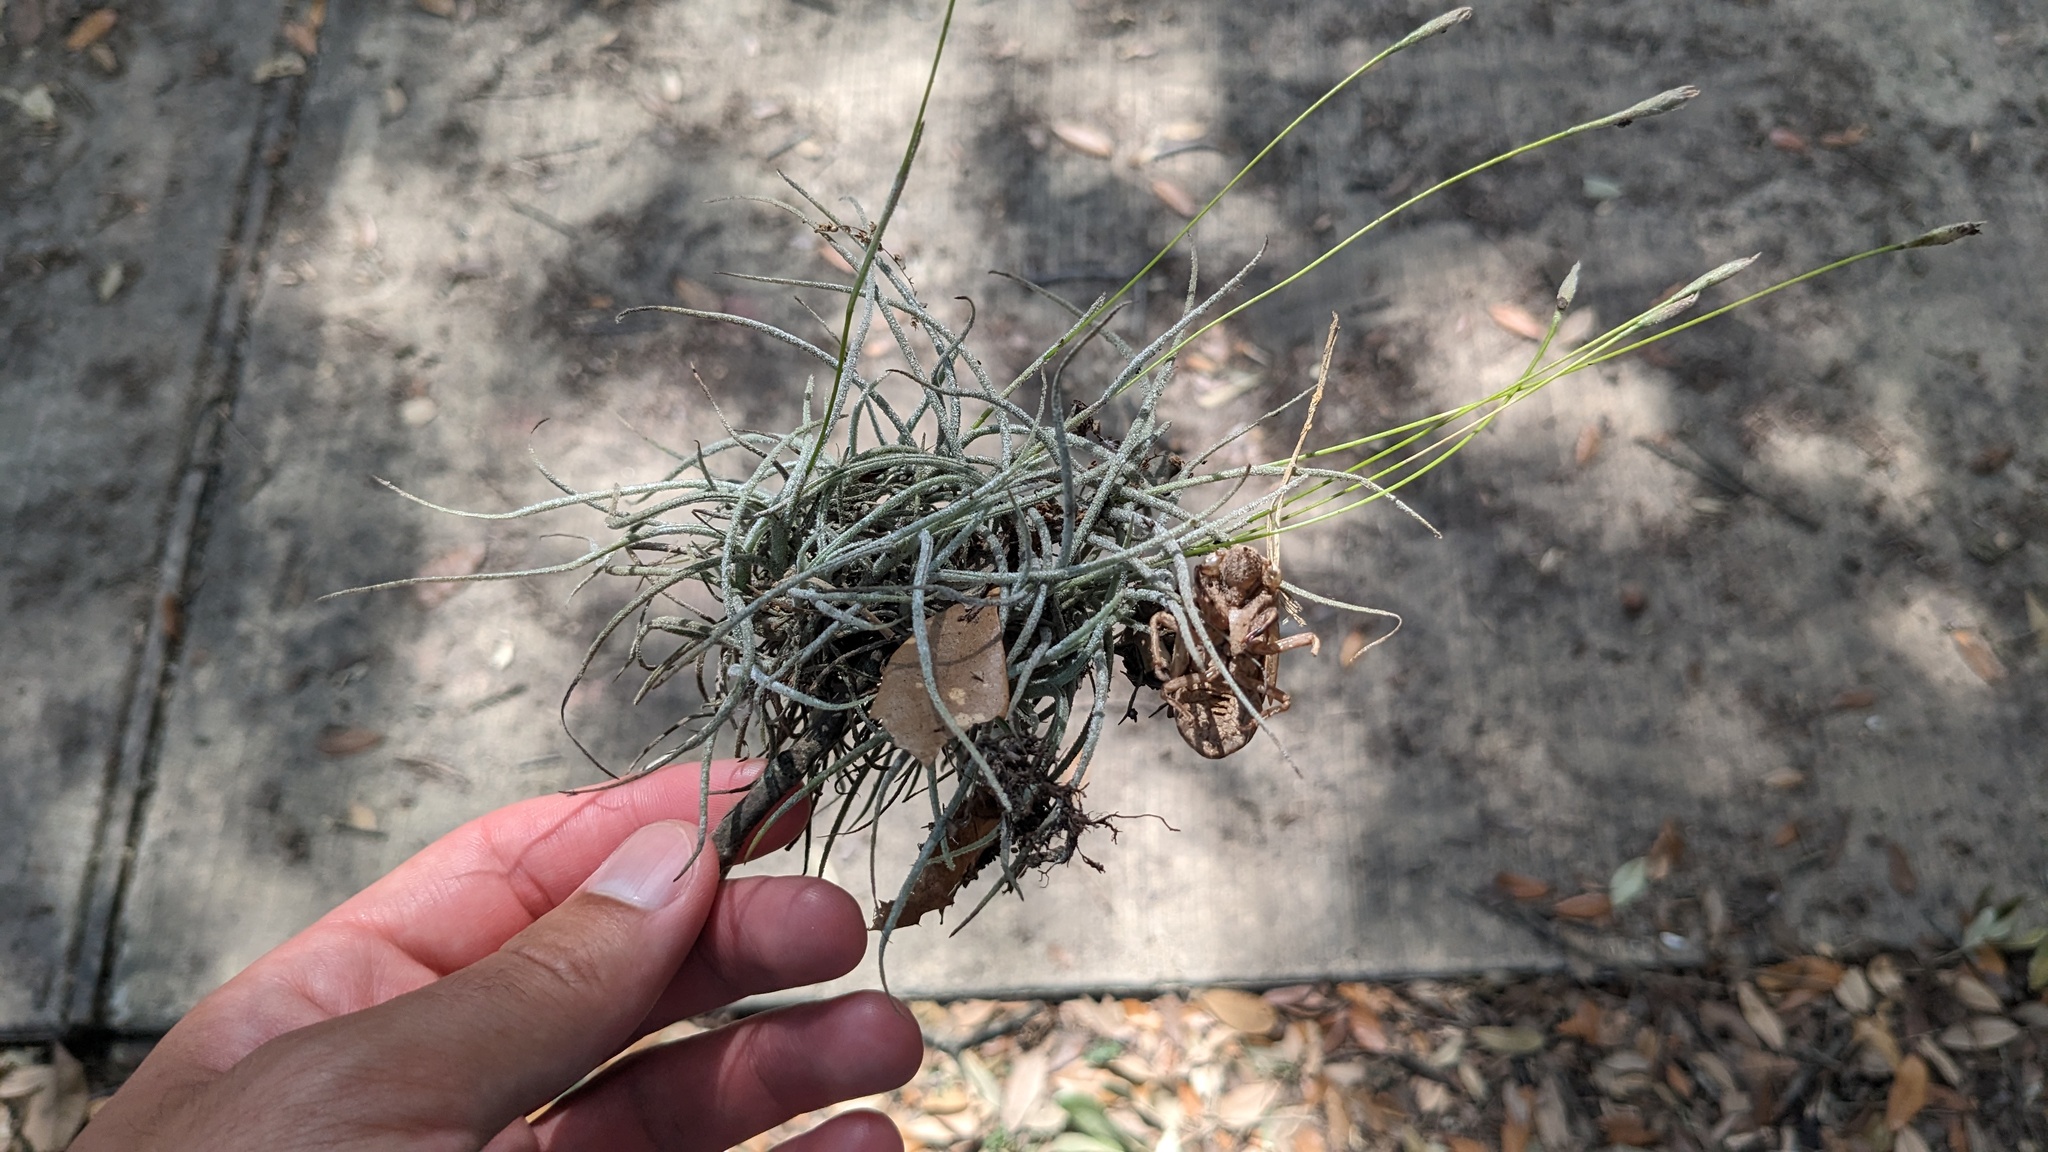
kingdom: Plantae
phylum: Tracheophyta
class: Liliopsida
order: Poales
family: Bromeliaceae
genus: Tillandsia
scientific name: Tillandsia recurvata
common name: Small ballmoss
